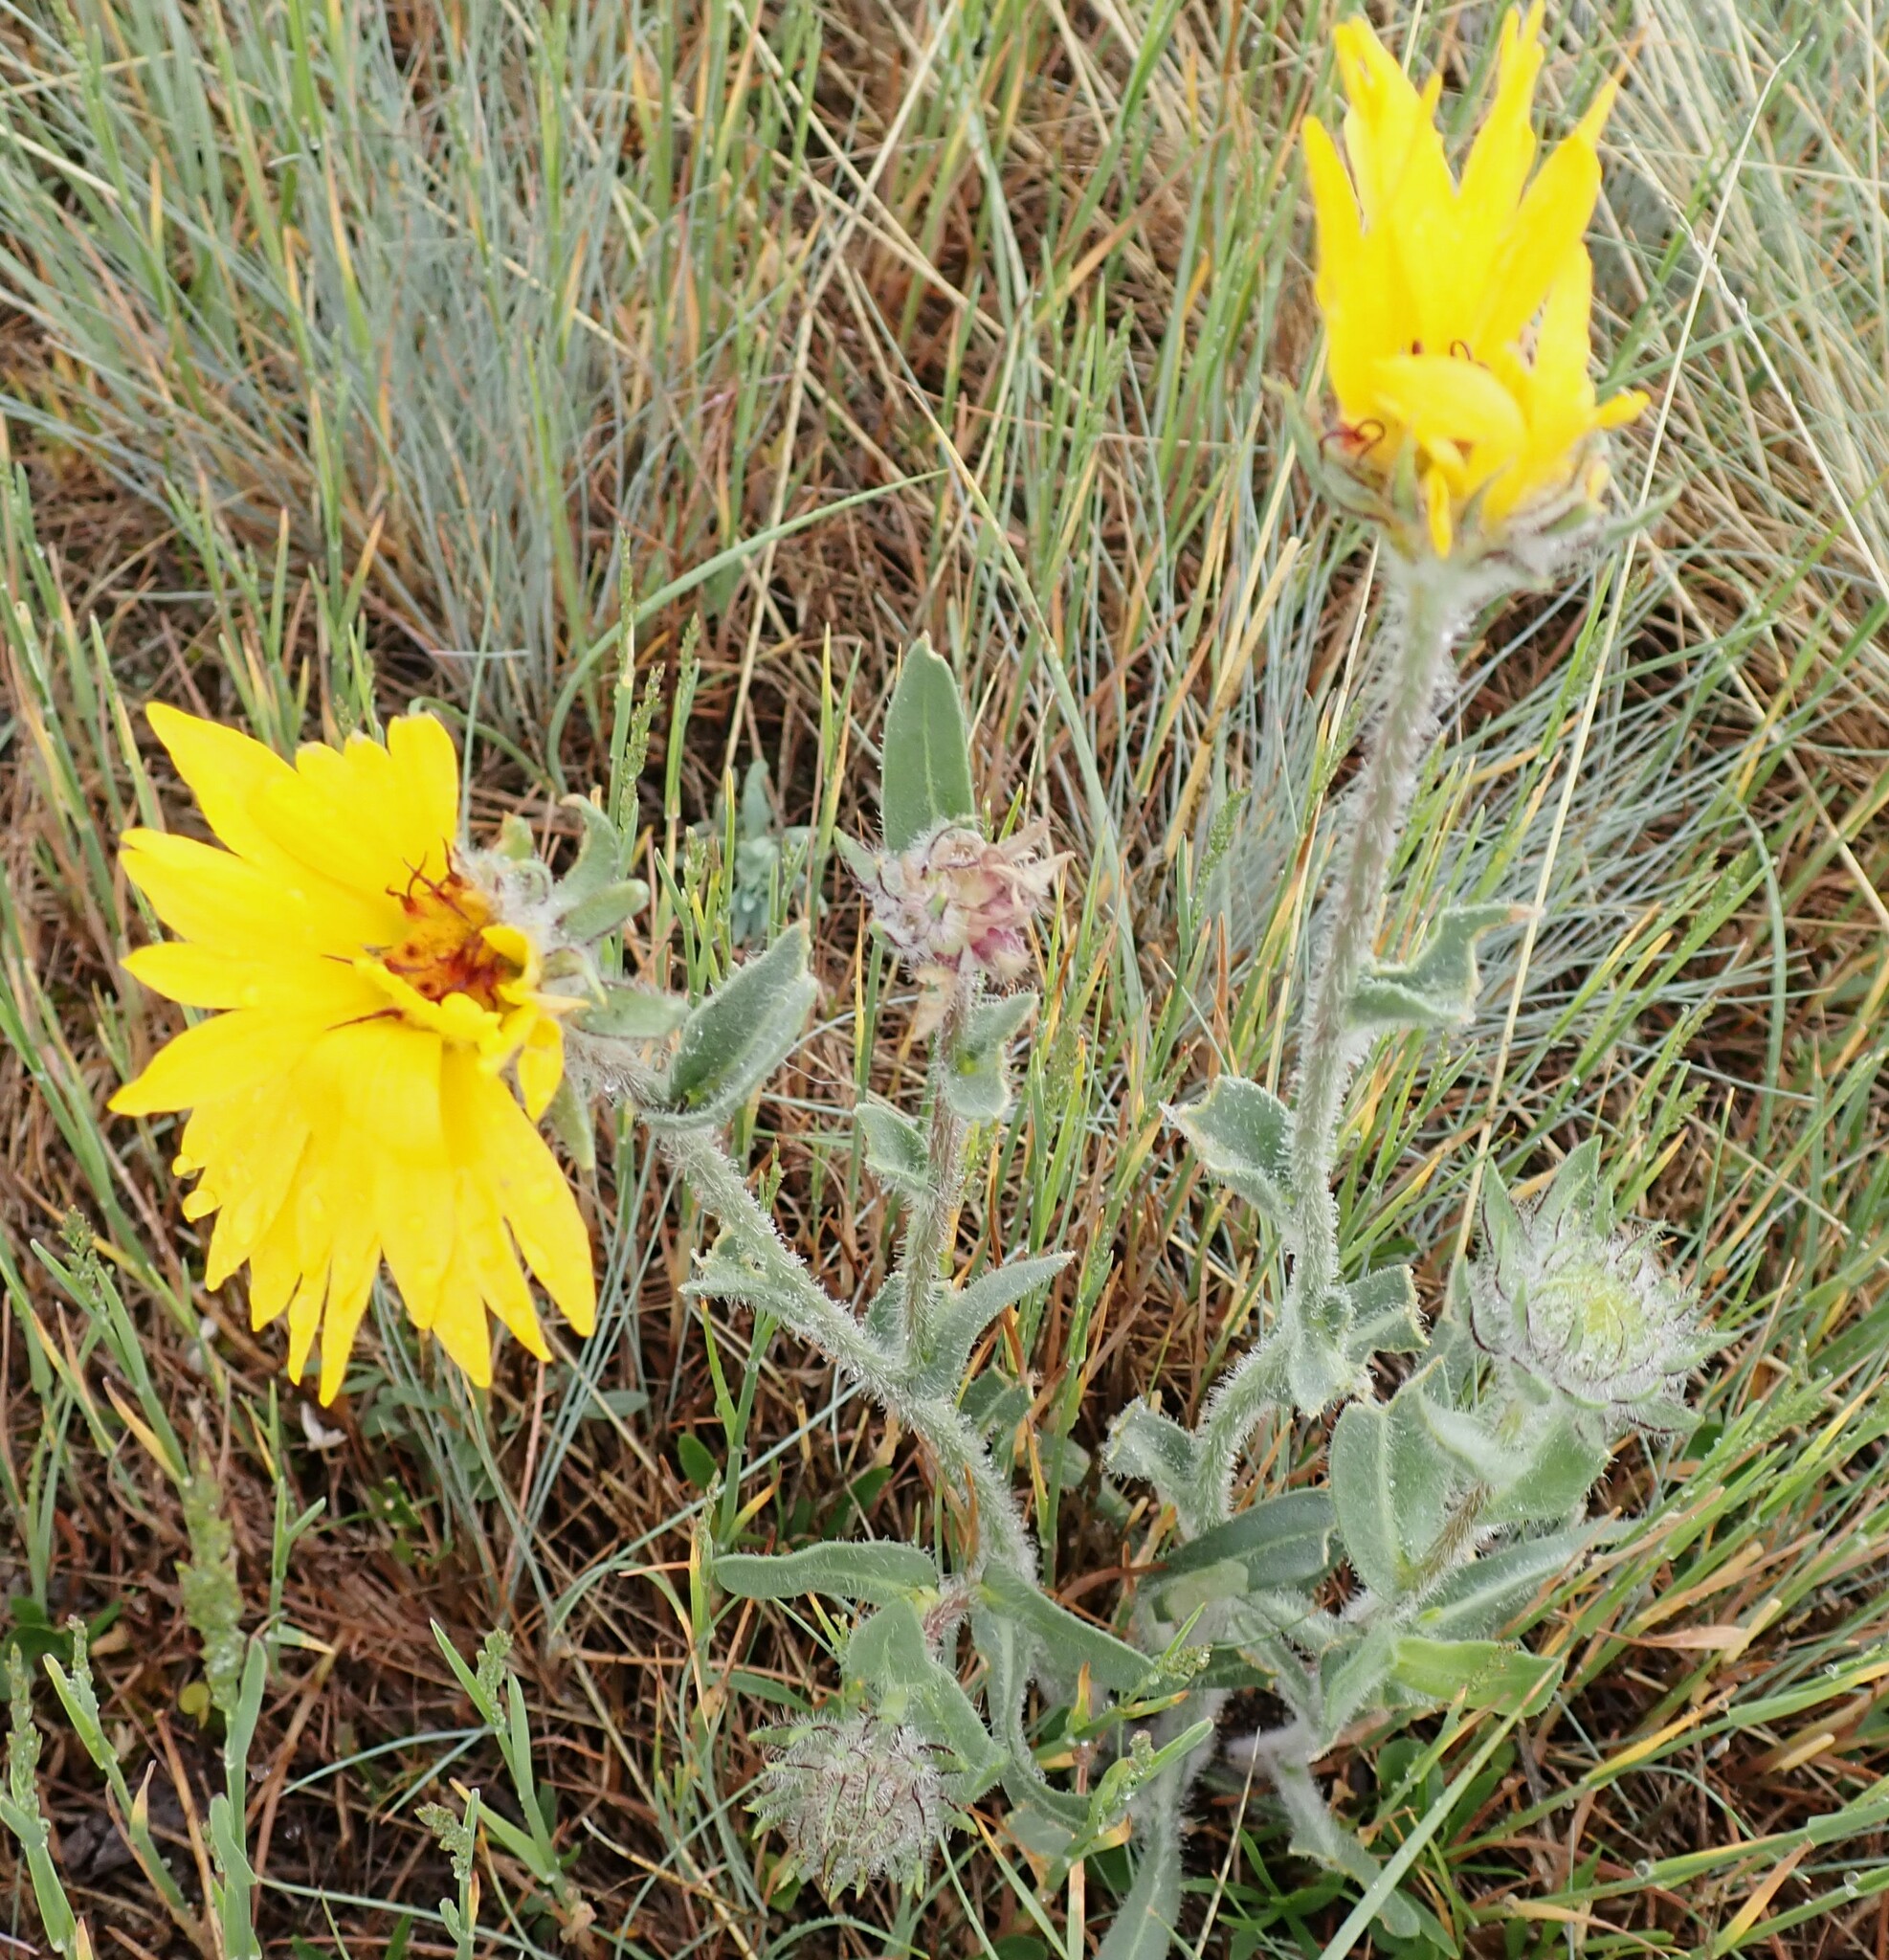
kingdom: Plantae
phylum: Tracheophyta
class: Magnoliopsida
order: Asterales
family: Asteraceae
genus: Gaillardia
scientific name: Gaillardia aristata
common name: Blanket-flower
